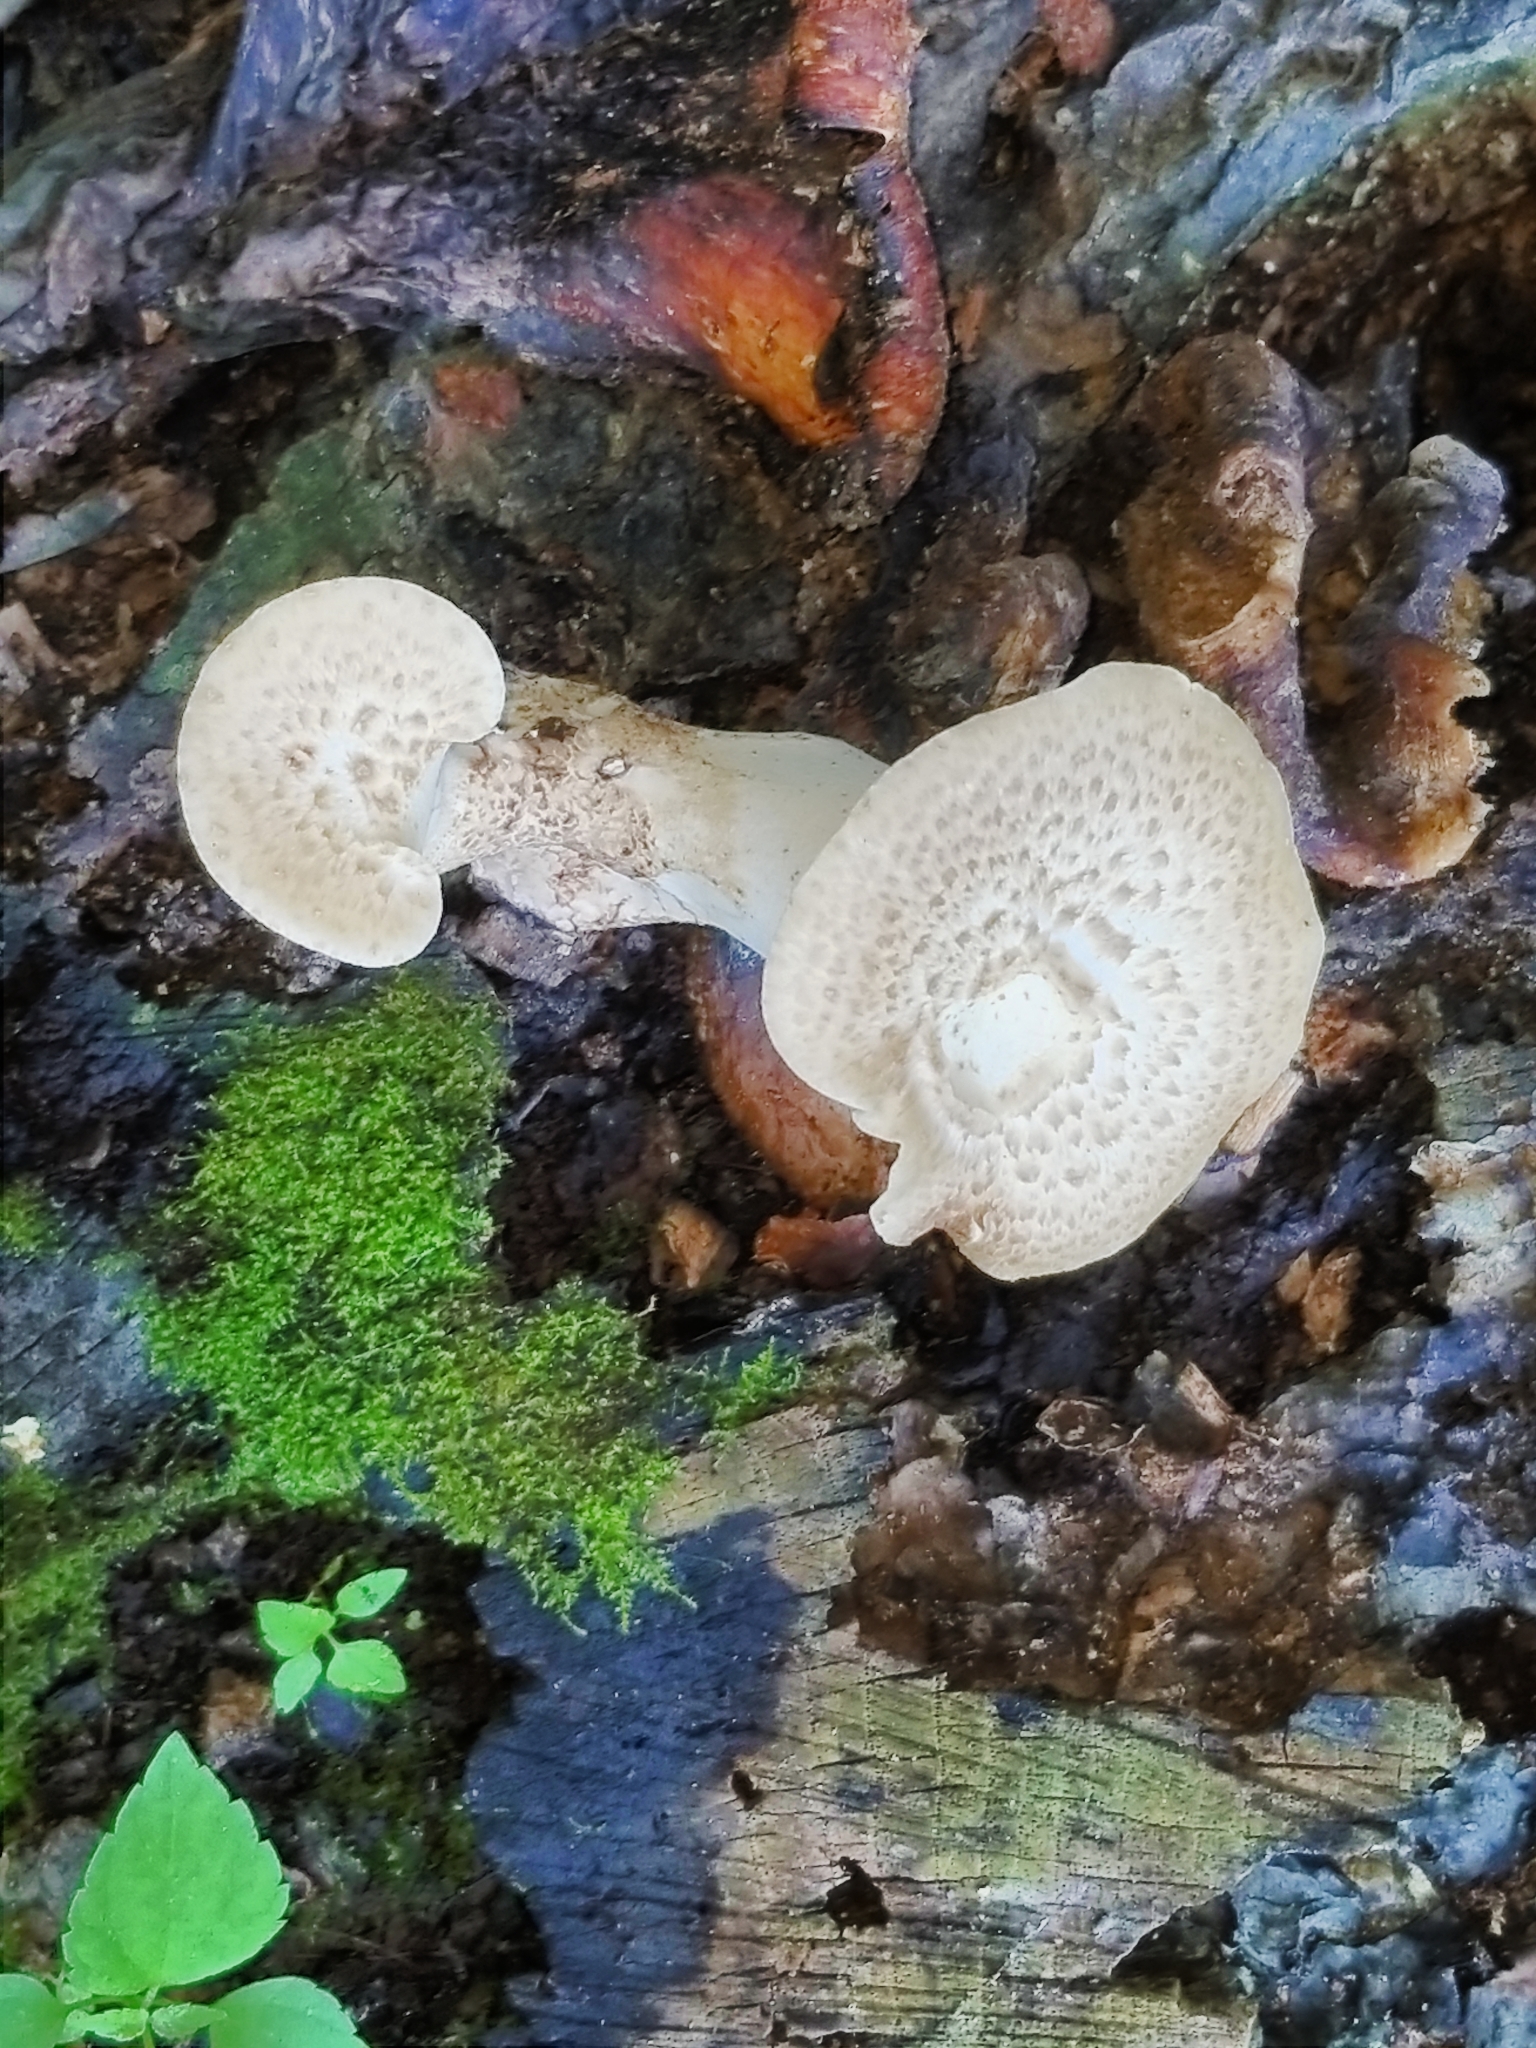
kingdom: Fungi
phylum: Basidiomycota
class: Agaricomycetes
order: Polyporales
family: Polyporaceae
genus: Cerioporus
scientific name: Cerioporus squamosus
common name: Dryad's saddle
